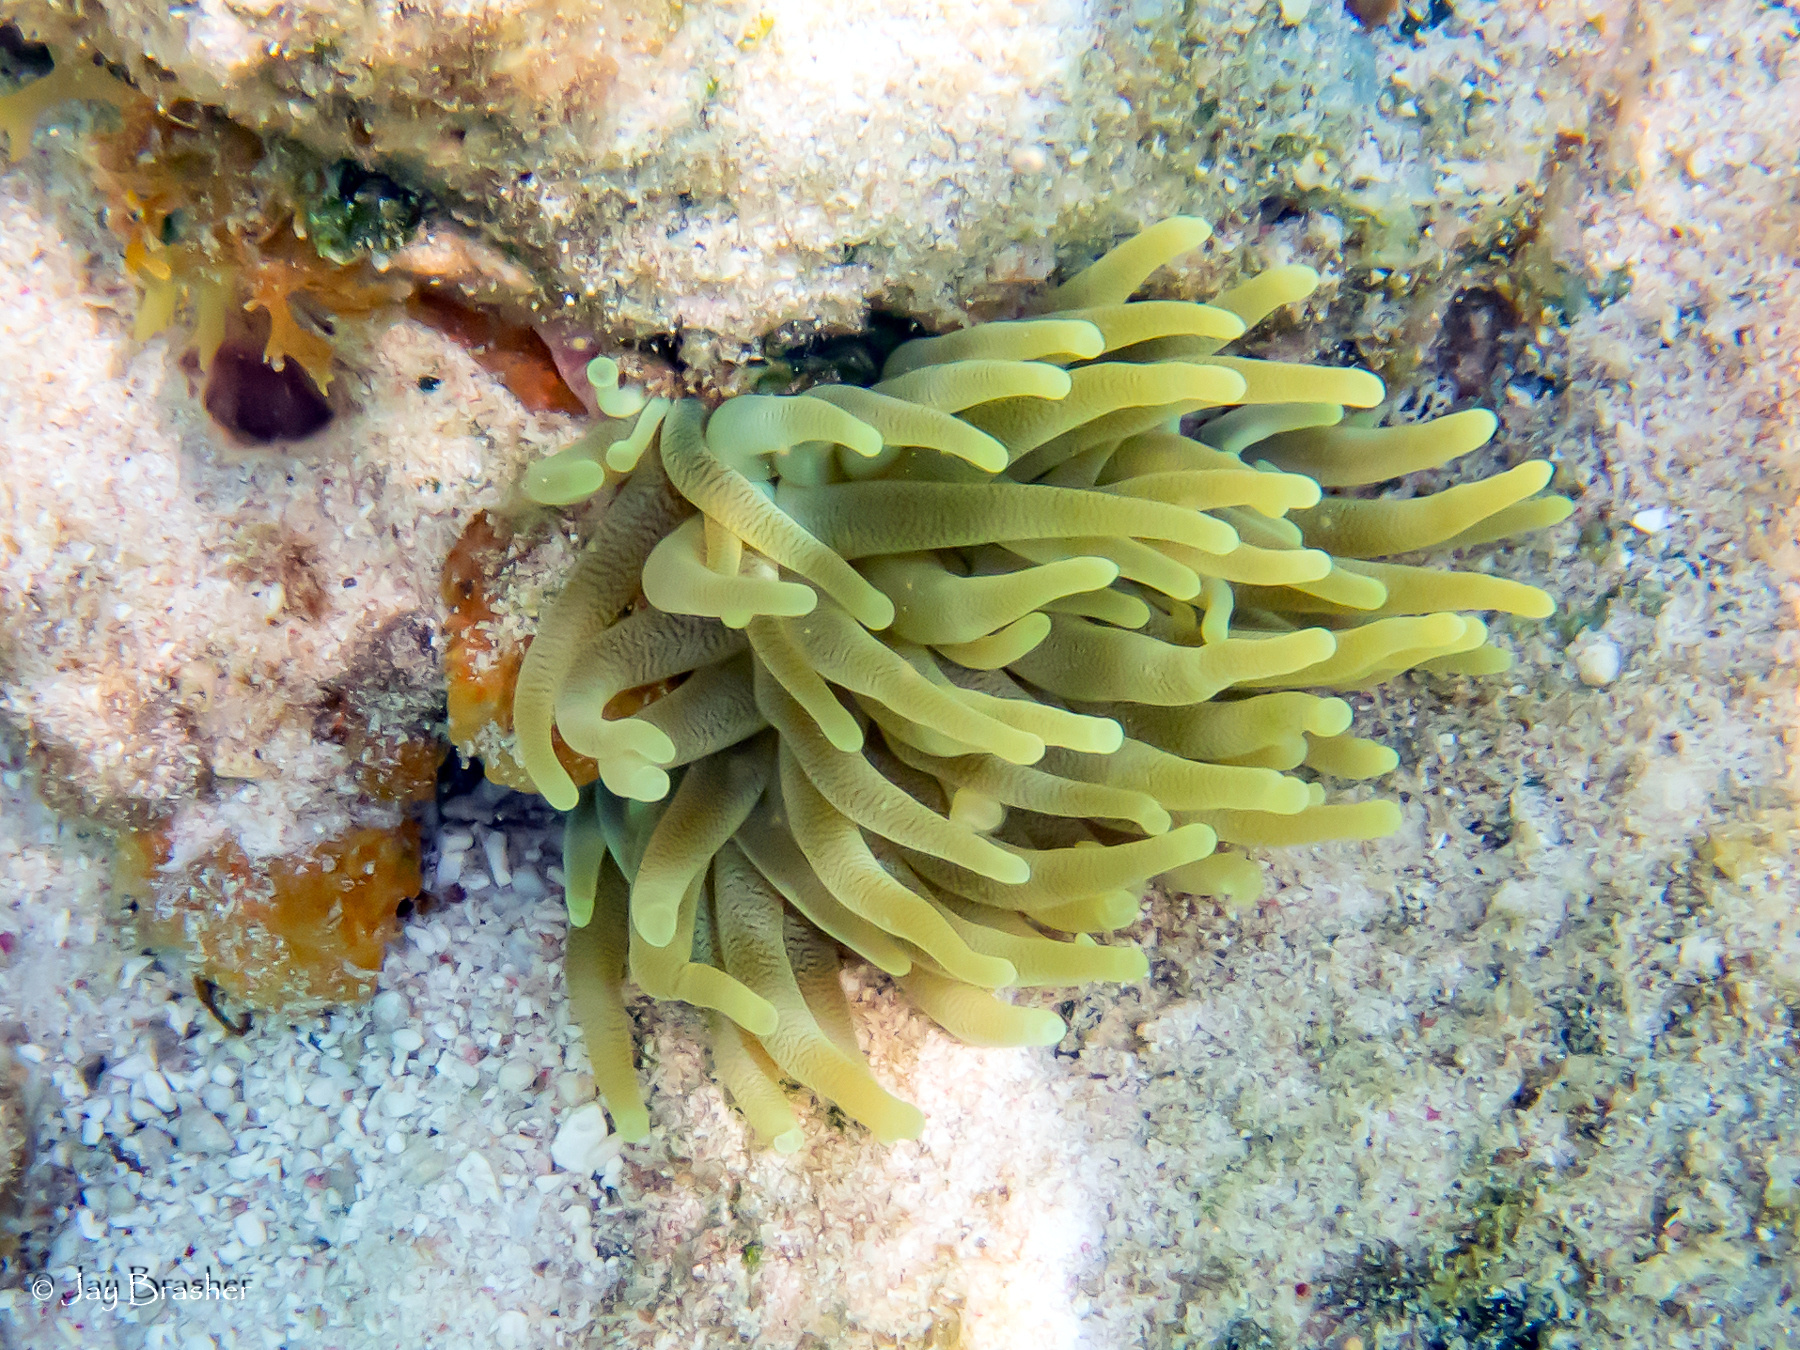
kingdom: Animalia
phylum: Cnidaria
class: Anthozoa
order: Actiniaria
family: Actiniidae
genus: Condylactis
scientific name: Condylactis gigantea
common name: Giant caribbean anemone
